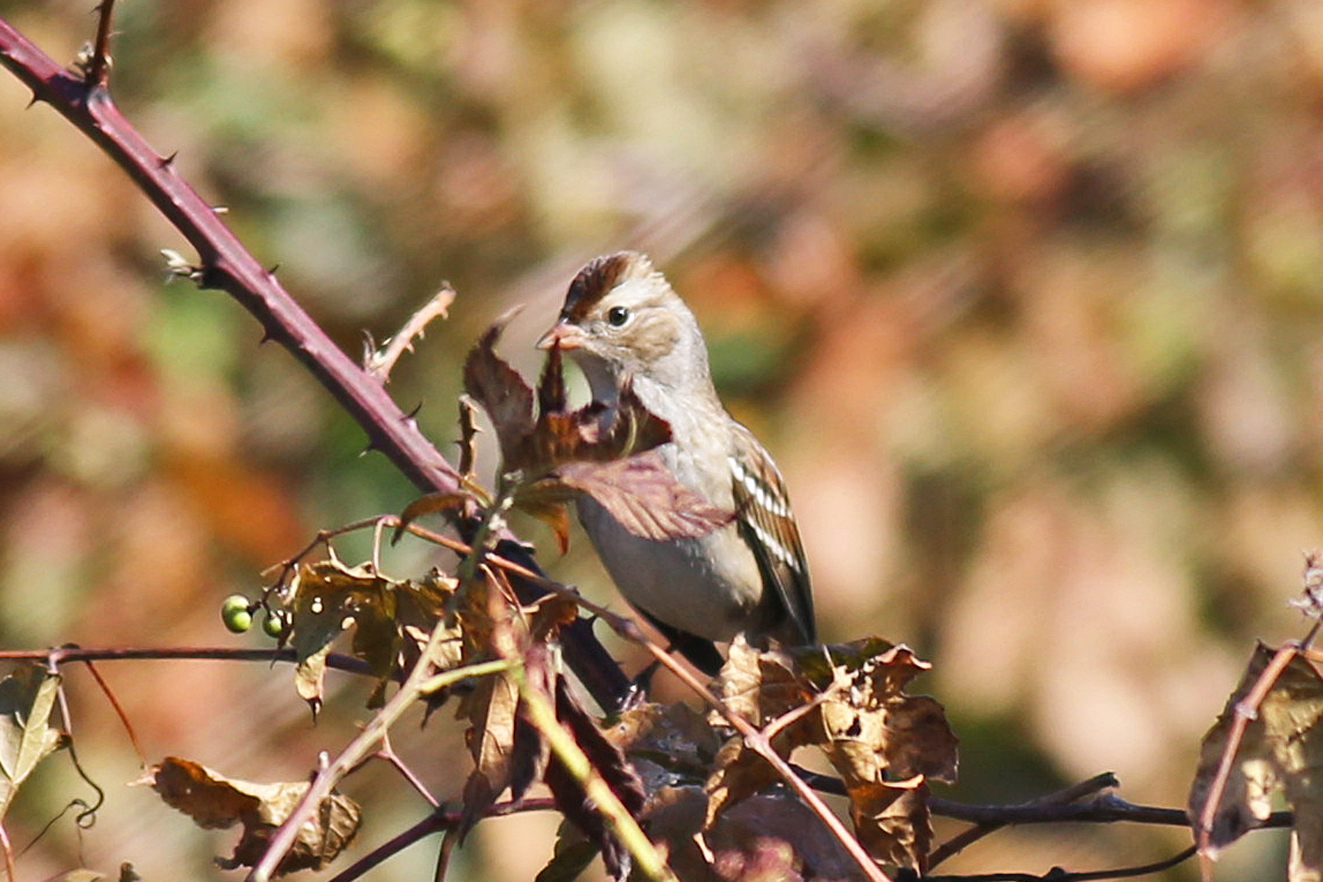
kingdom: Animalia
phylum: Chordata
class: Aves
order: Passeriformes
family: Passerellidae
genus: Zonotrichia
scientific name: Zonotrichia leucophrys
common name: White-crowned sparrow
